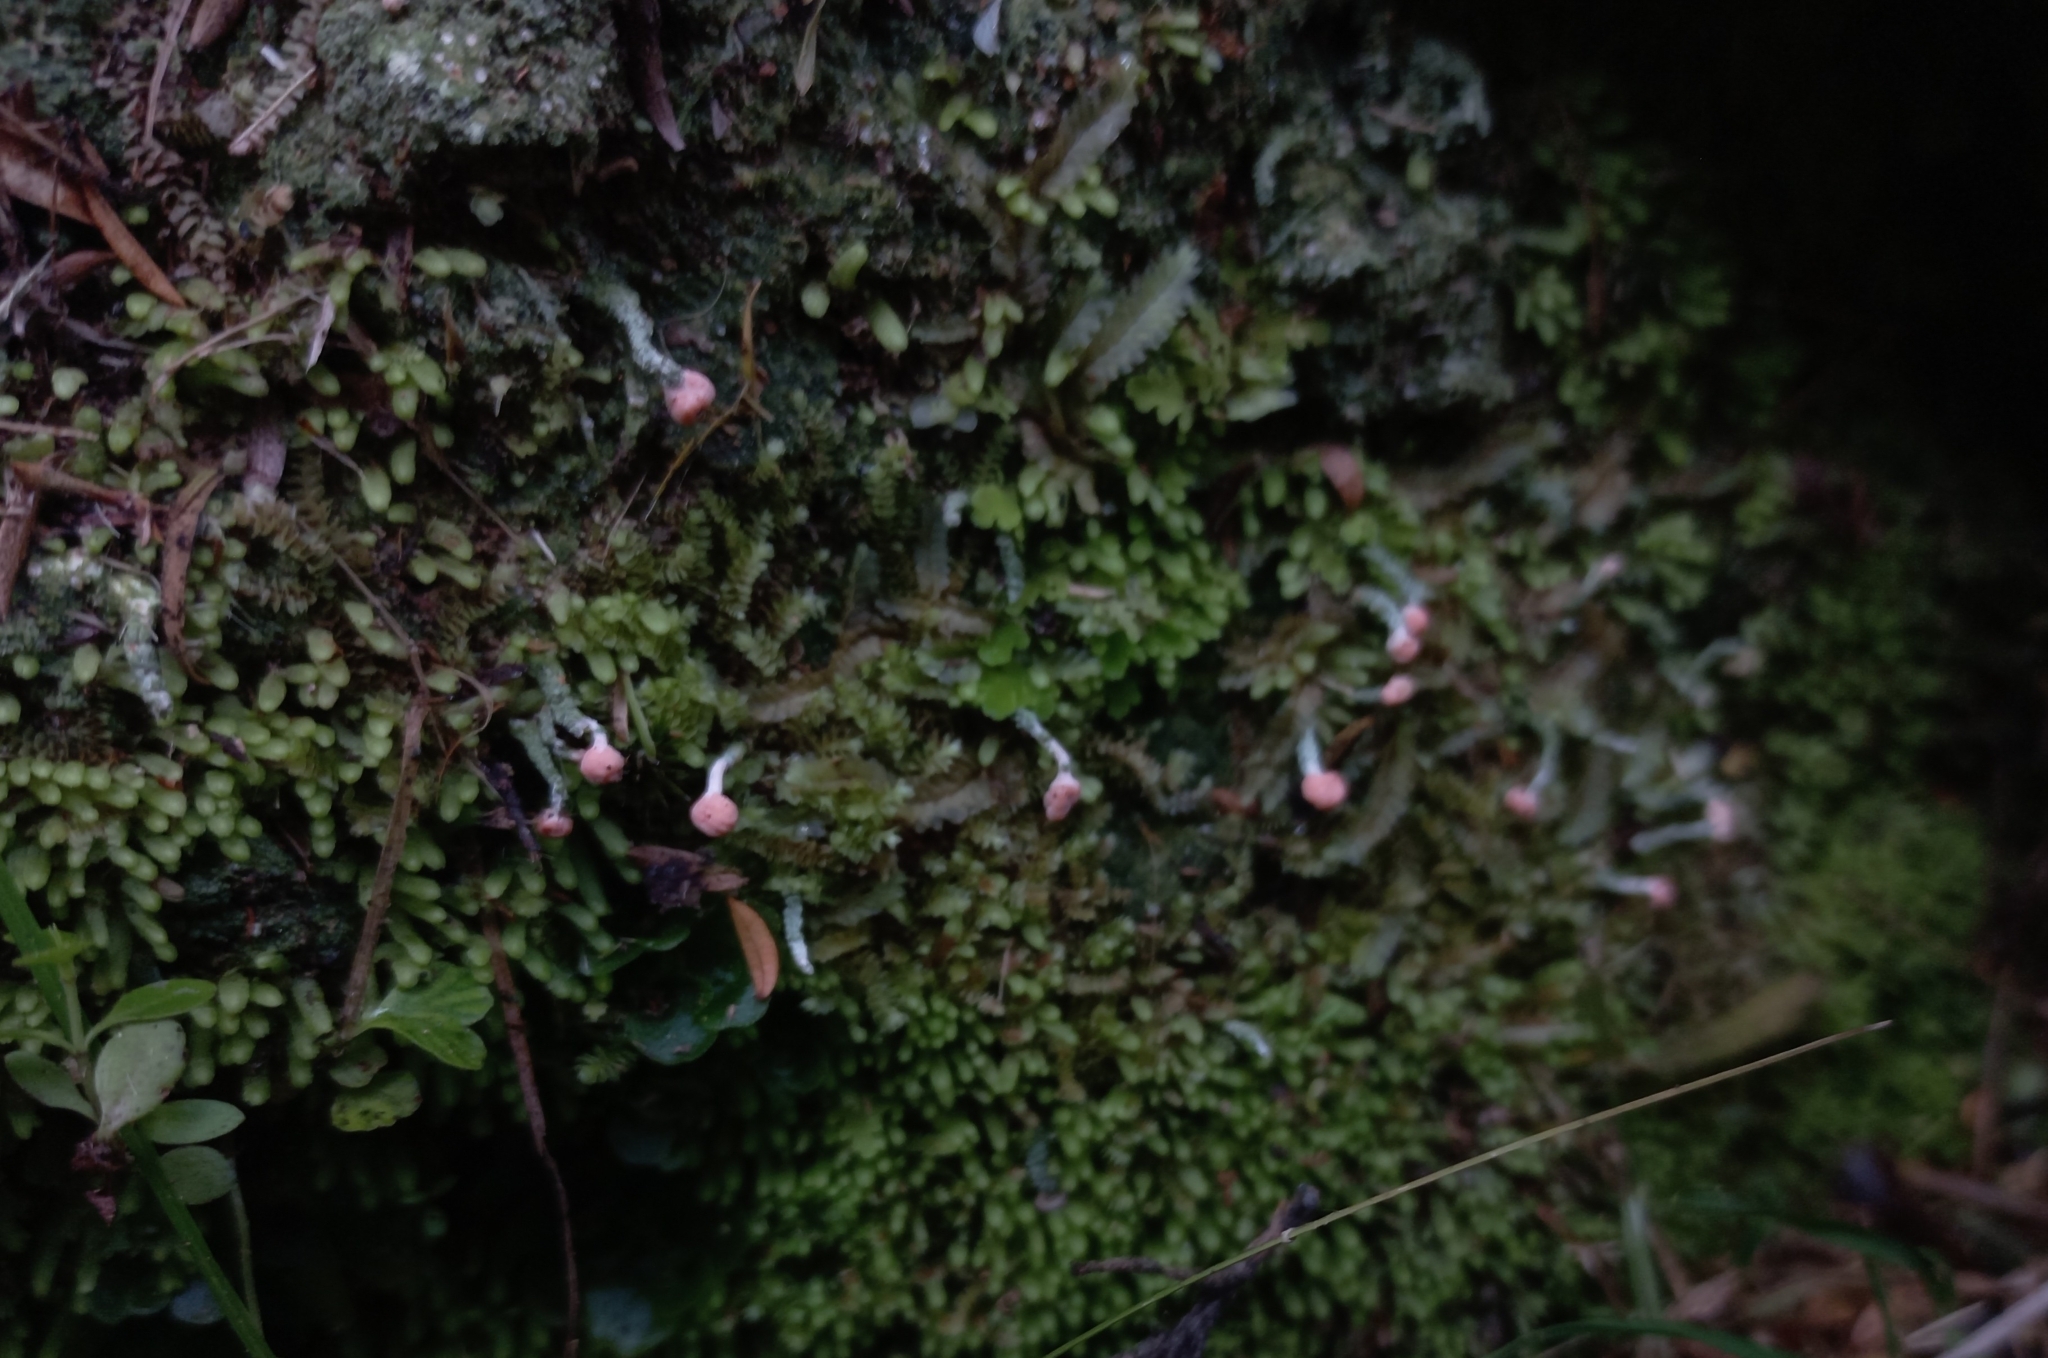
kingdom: Fungi
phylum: Ascomycota
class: Lecanoromycetes
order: Pertusariales
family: Icmadophilaceae
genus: Dibaeis
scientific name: Dibaeis arcuata
